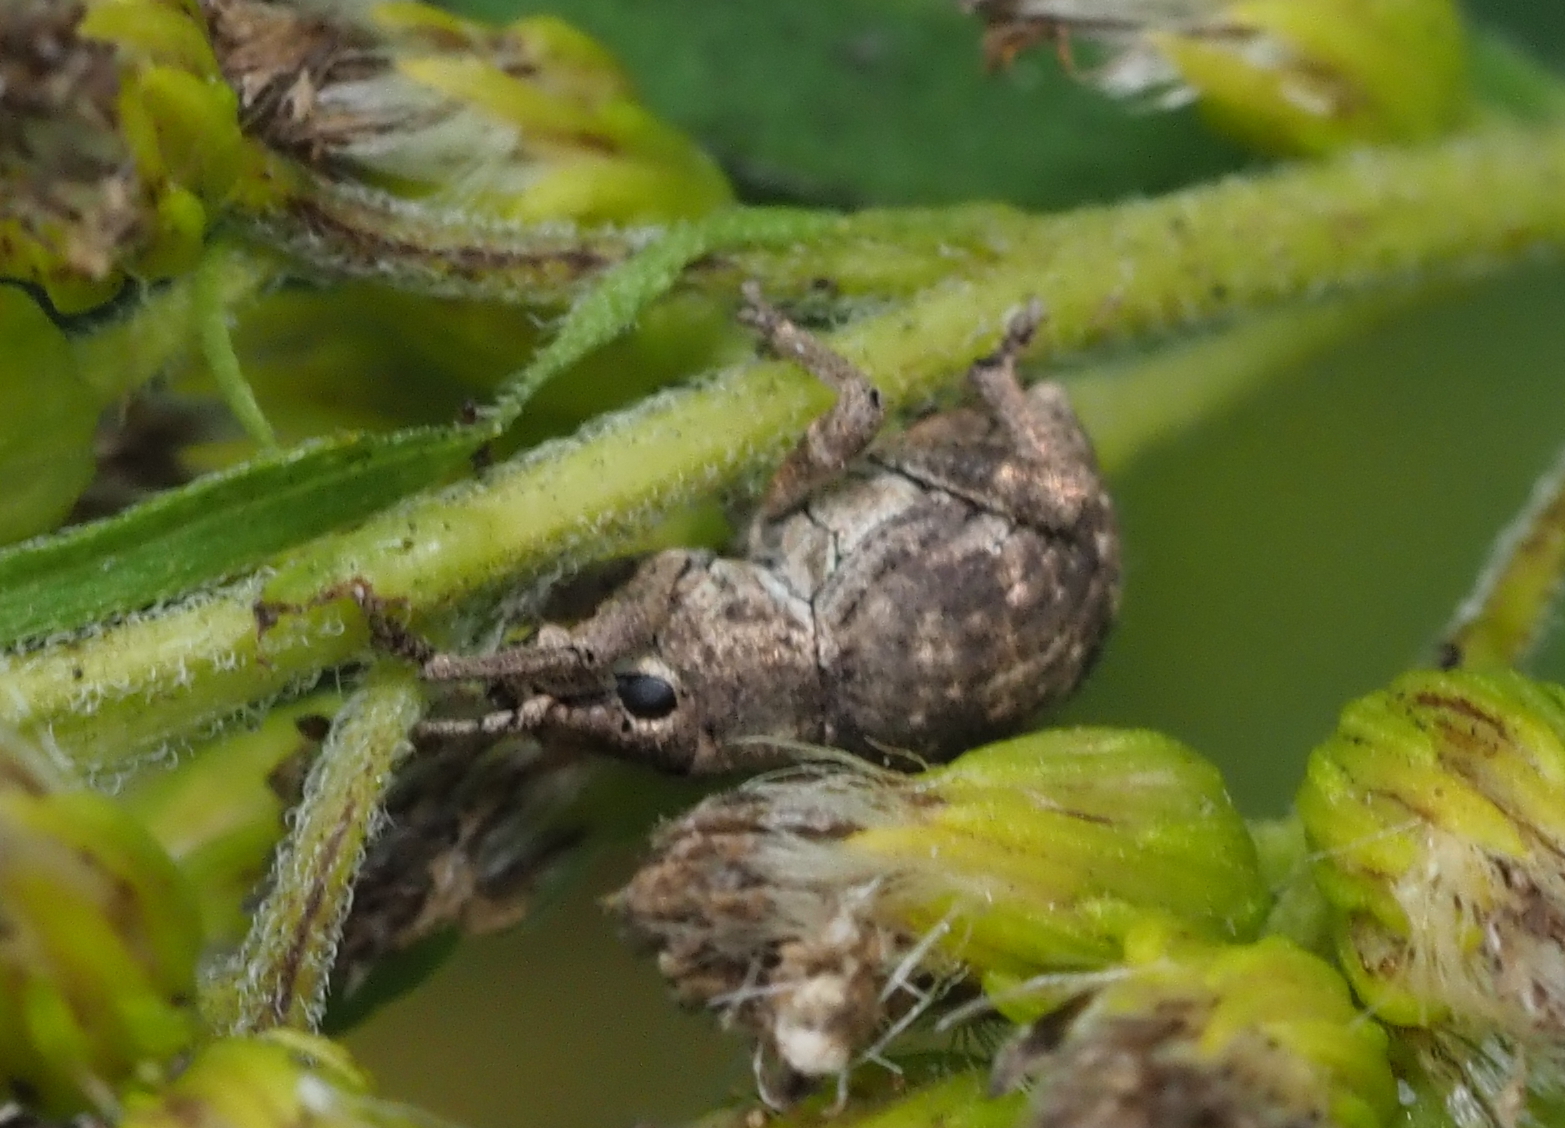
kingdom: Animalia
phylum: Arthropoda
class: Insecta
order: Coleoptera
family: Curculionidae
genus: Pseudocneorhinus
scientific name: Pseudocneorhinus bifasciatus
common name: Two-banded japanese weevil
